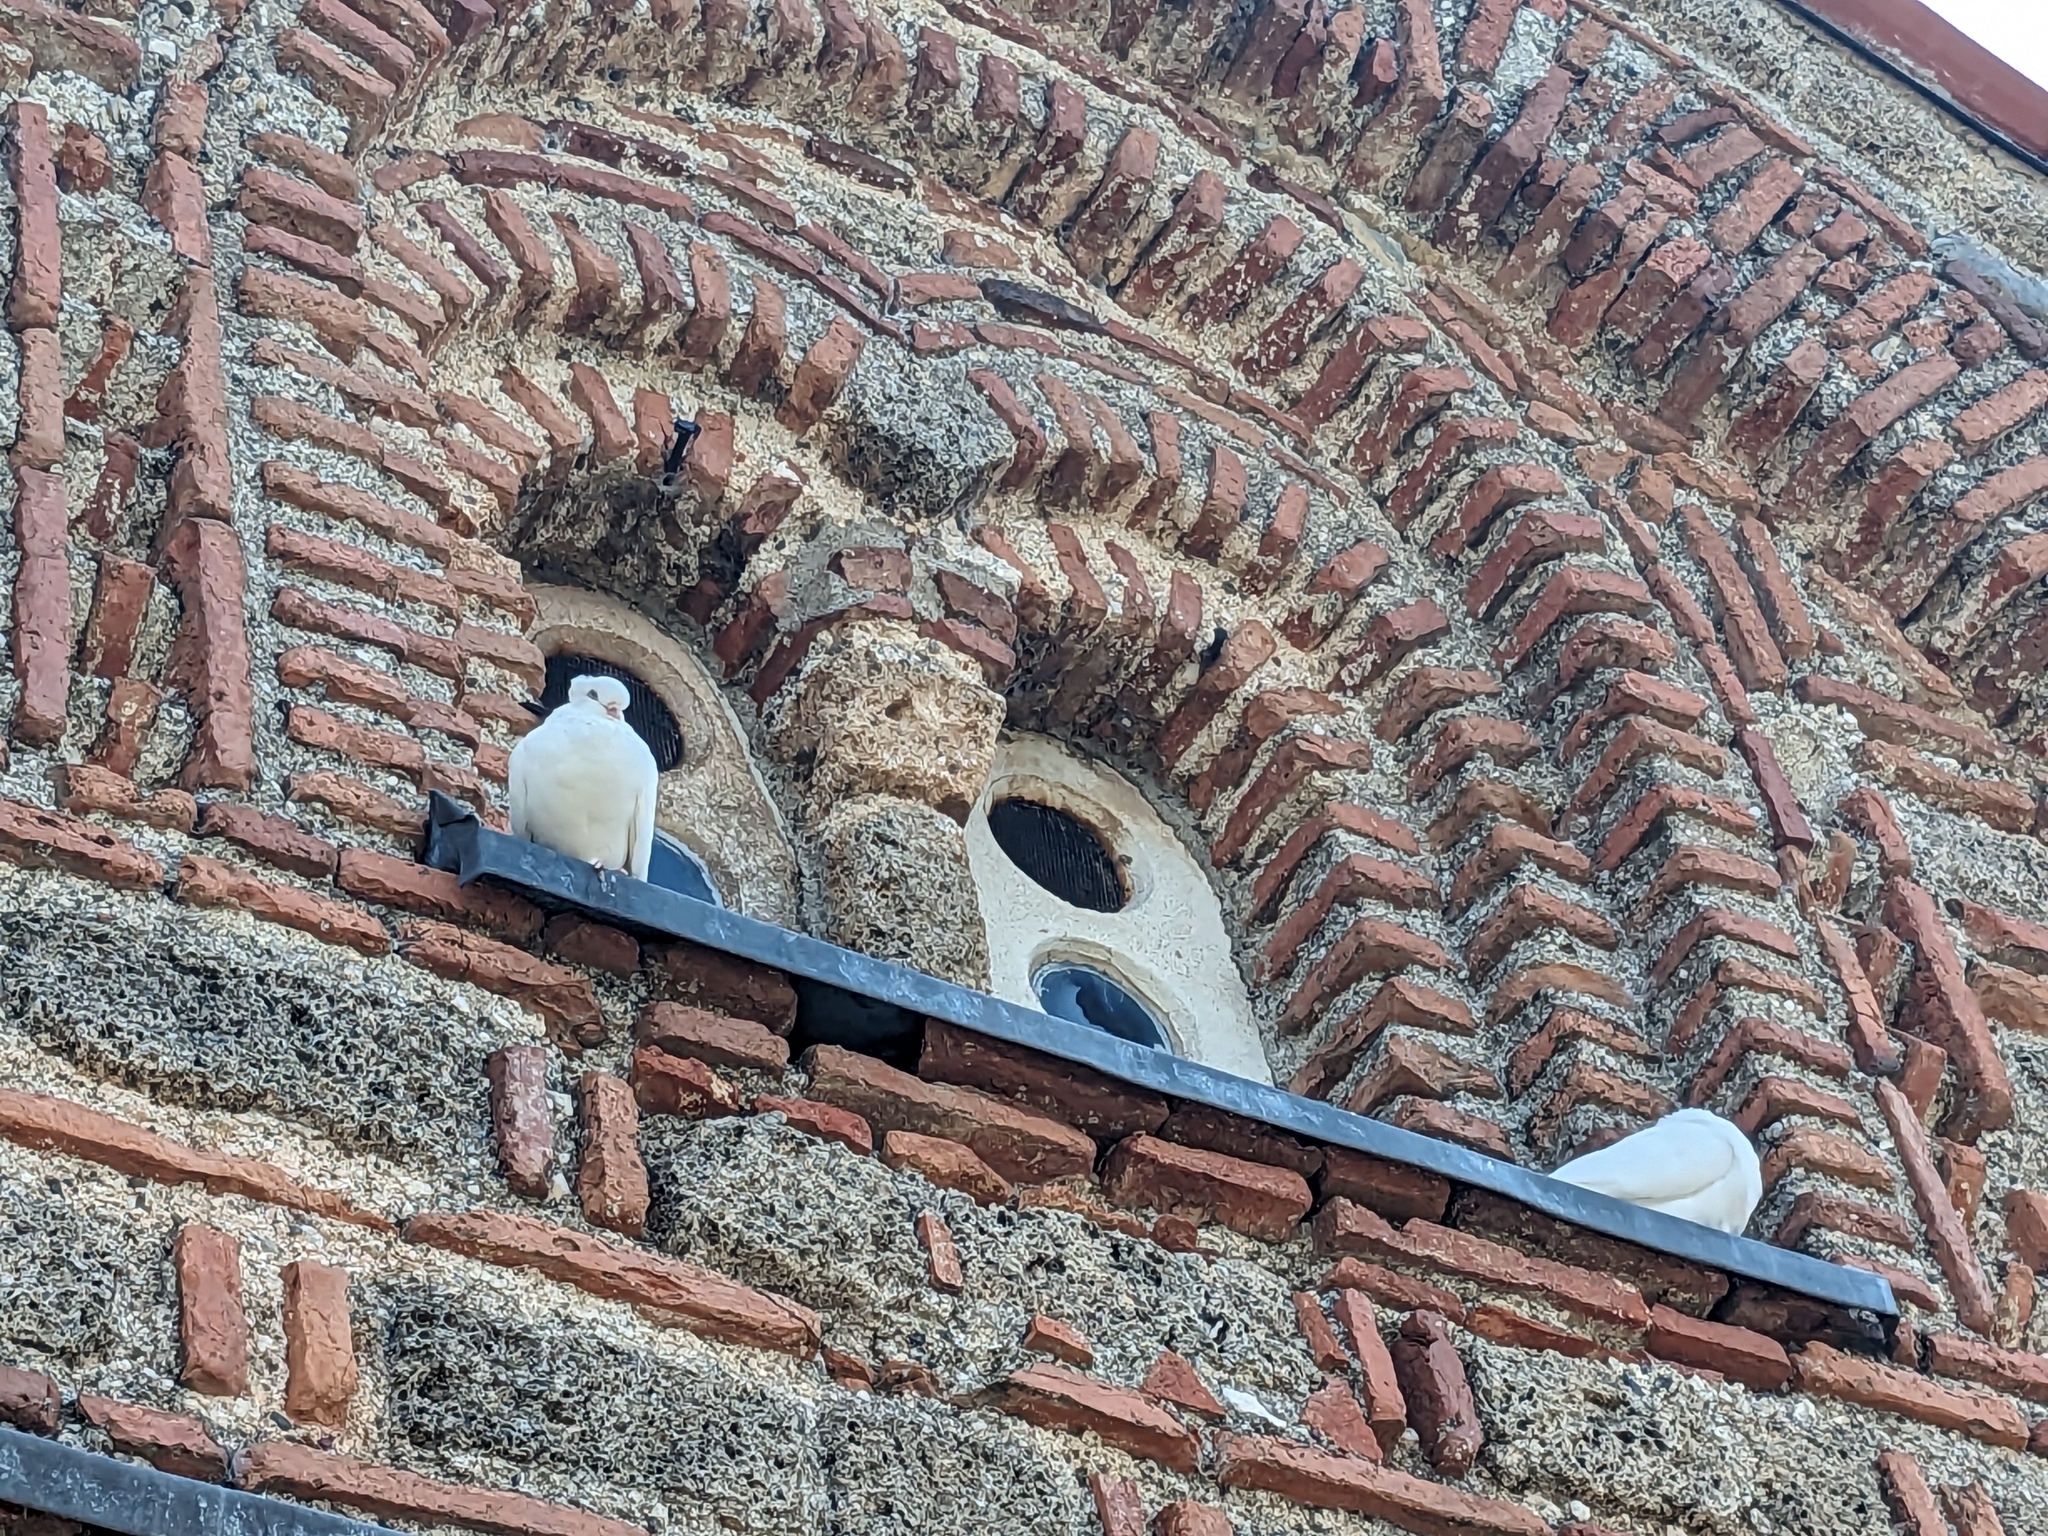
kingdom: Animalia
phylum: Chordata
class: Aves
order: Columbiformes
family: Columbidae
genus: Columba
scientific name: Columba livia
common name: Rock pigeon
